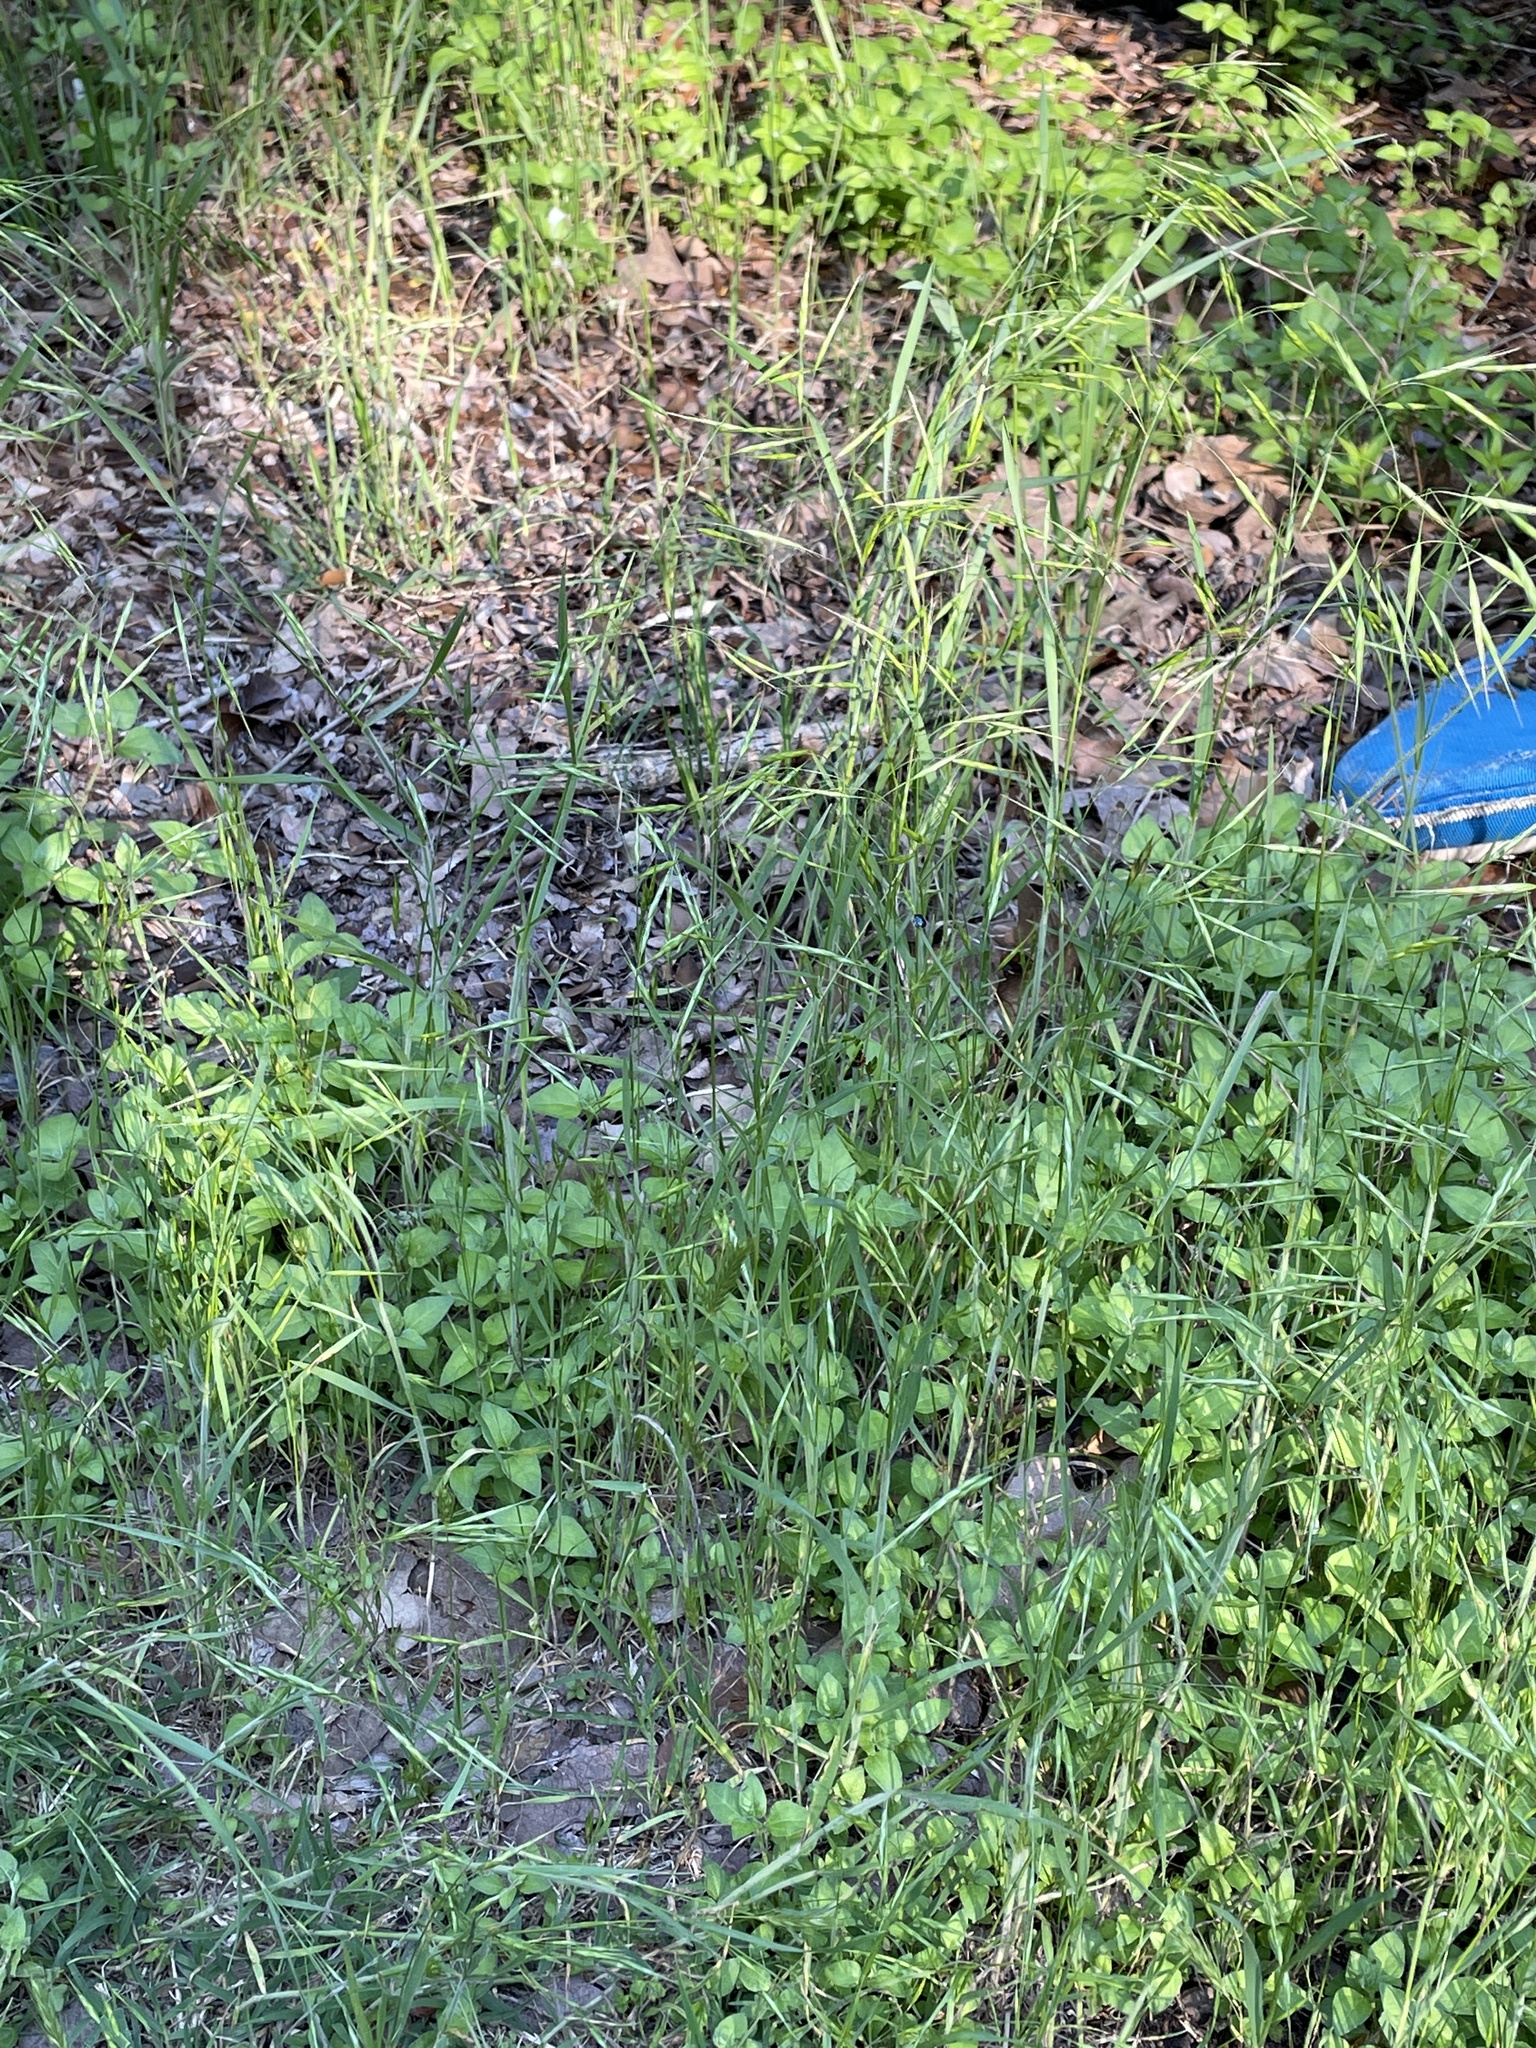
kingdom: Plantae
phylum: Tracheophyta
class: Liliopsida
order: Poales
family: Poaceae
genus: Bromus
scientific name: Bromus japonicus
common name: Japanese brome
